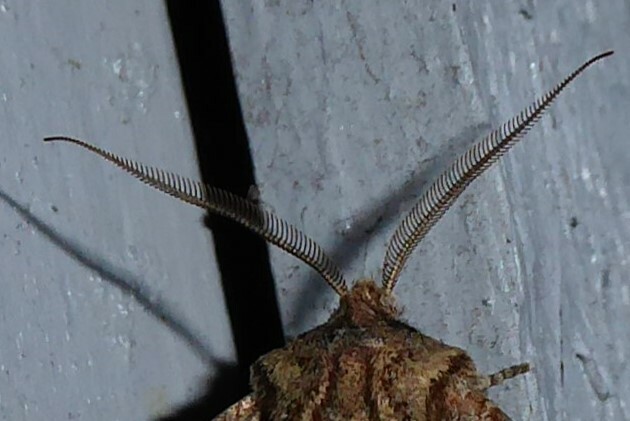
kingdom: Animalia
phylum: Arthropoda
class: Insecta
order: Lepidoptera
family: Noctuidae
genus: Ichneutica
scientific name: Ichneutica skelloni
